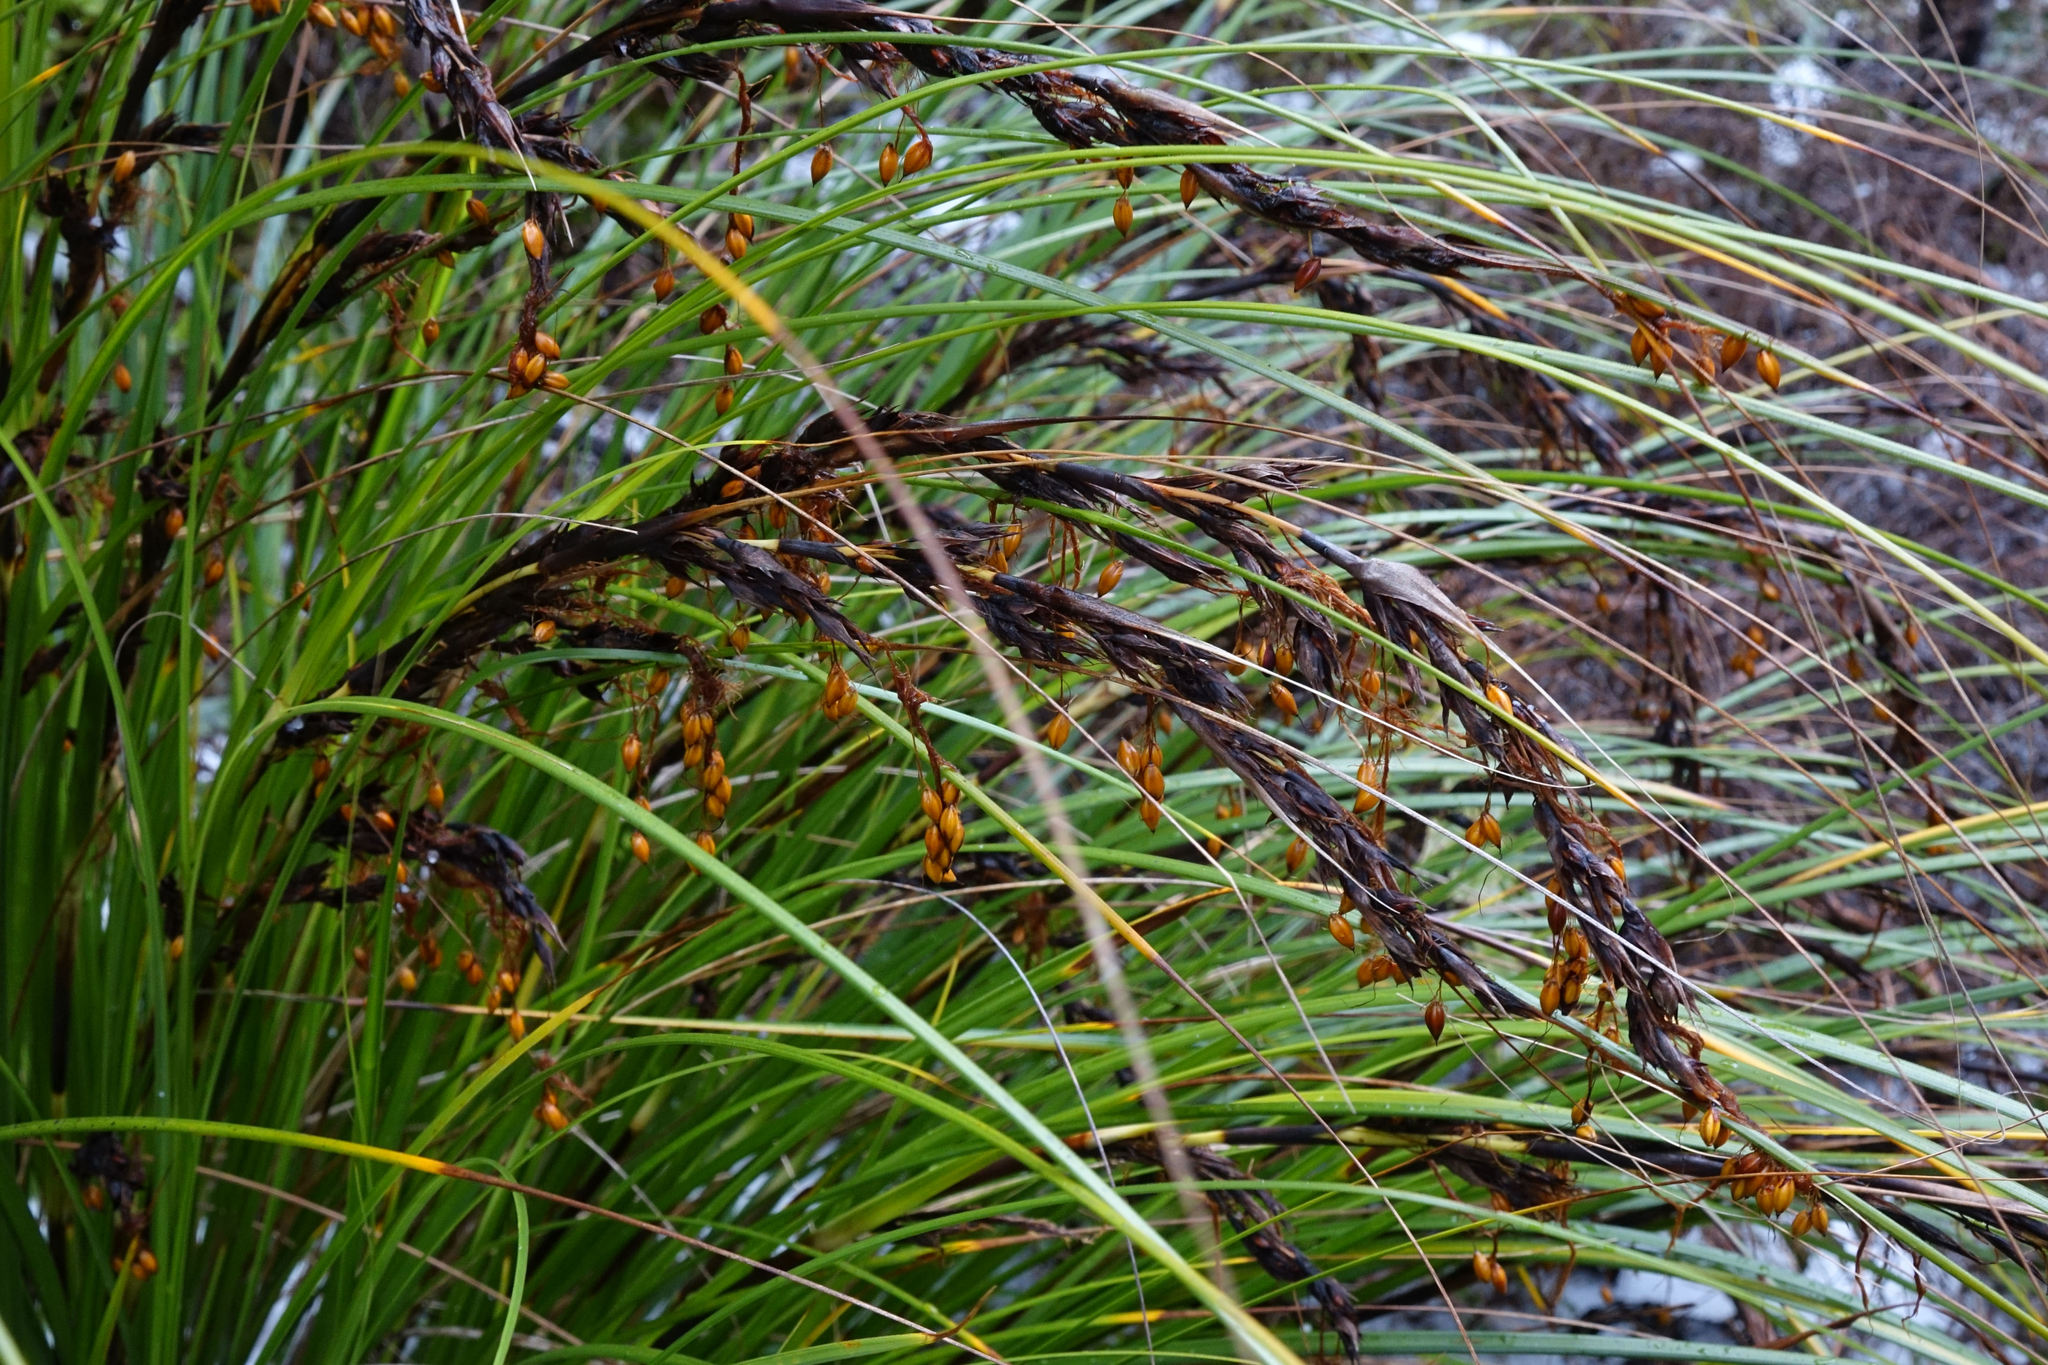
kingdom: Plantae
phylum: Tracheophyta
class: Liliopsida
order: Poales
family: Cyperaceae
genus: Gahnia
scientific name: Gahnia procera
